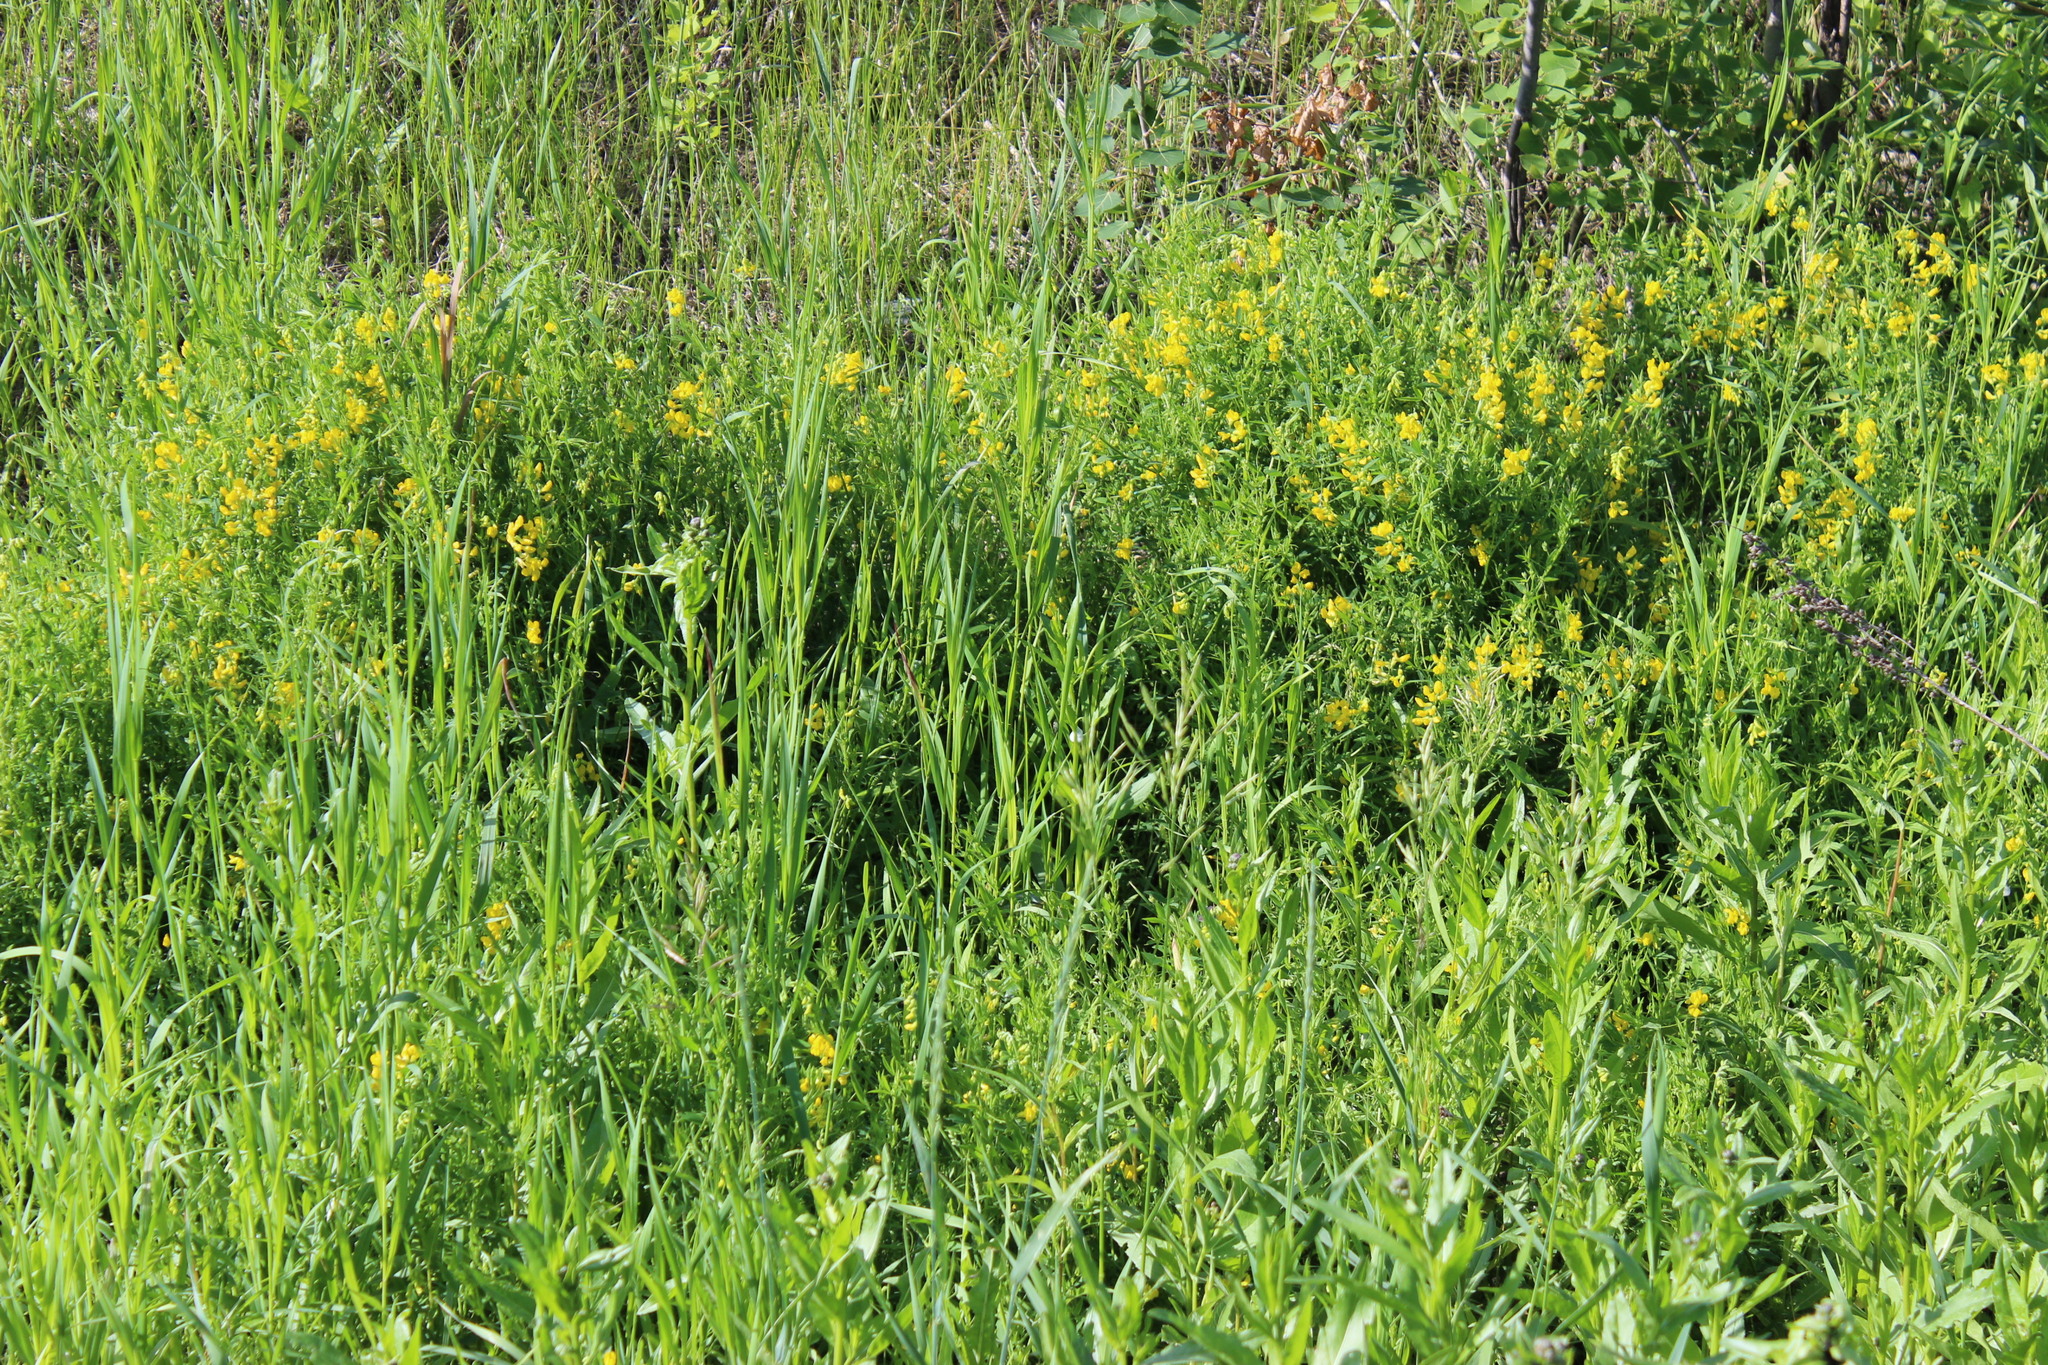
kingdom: Plantae
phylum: Tracheophyta
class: Magnoliopsida
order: Fabales
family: Fabaceae
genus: Lathyrus
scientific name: Lathyrus pratensis
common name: Meadow vetchling
